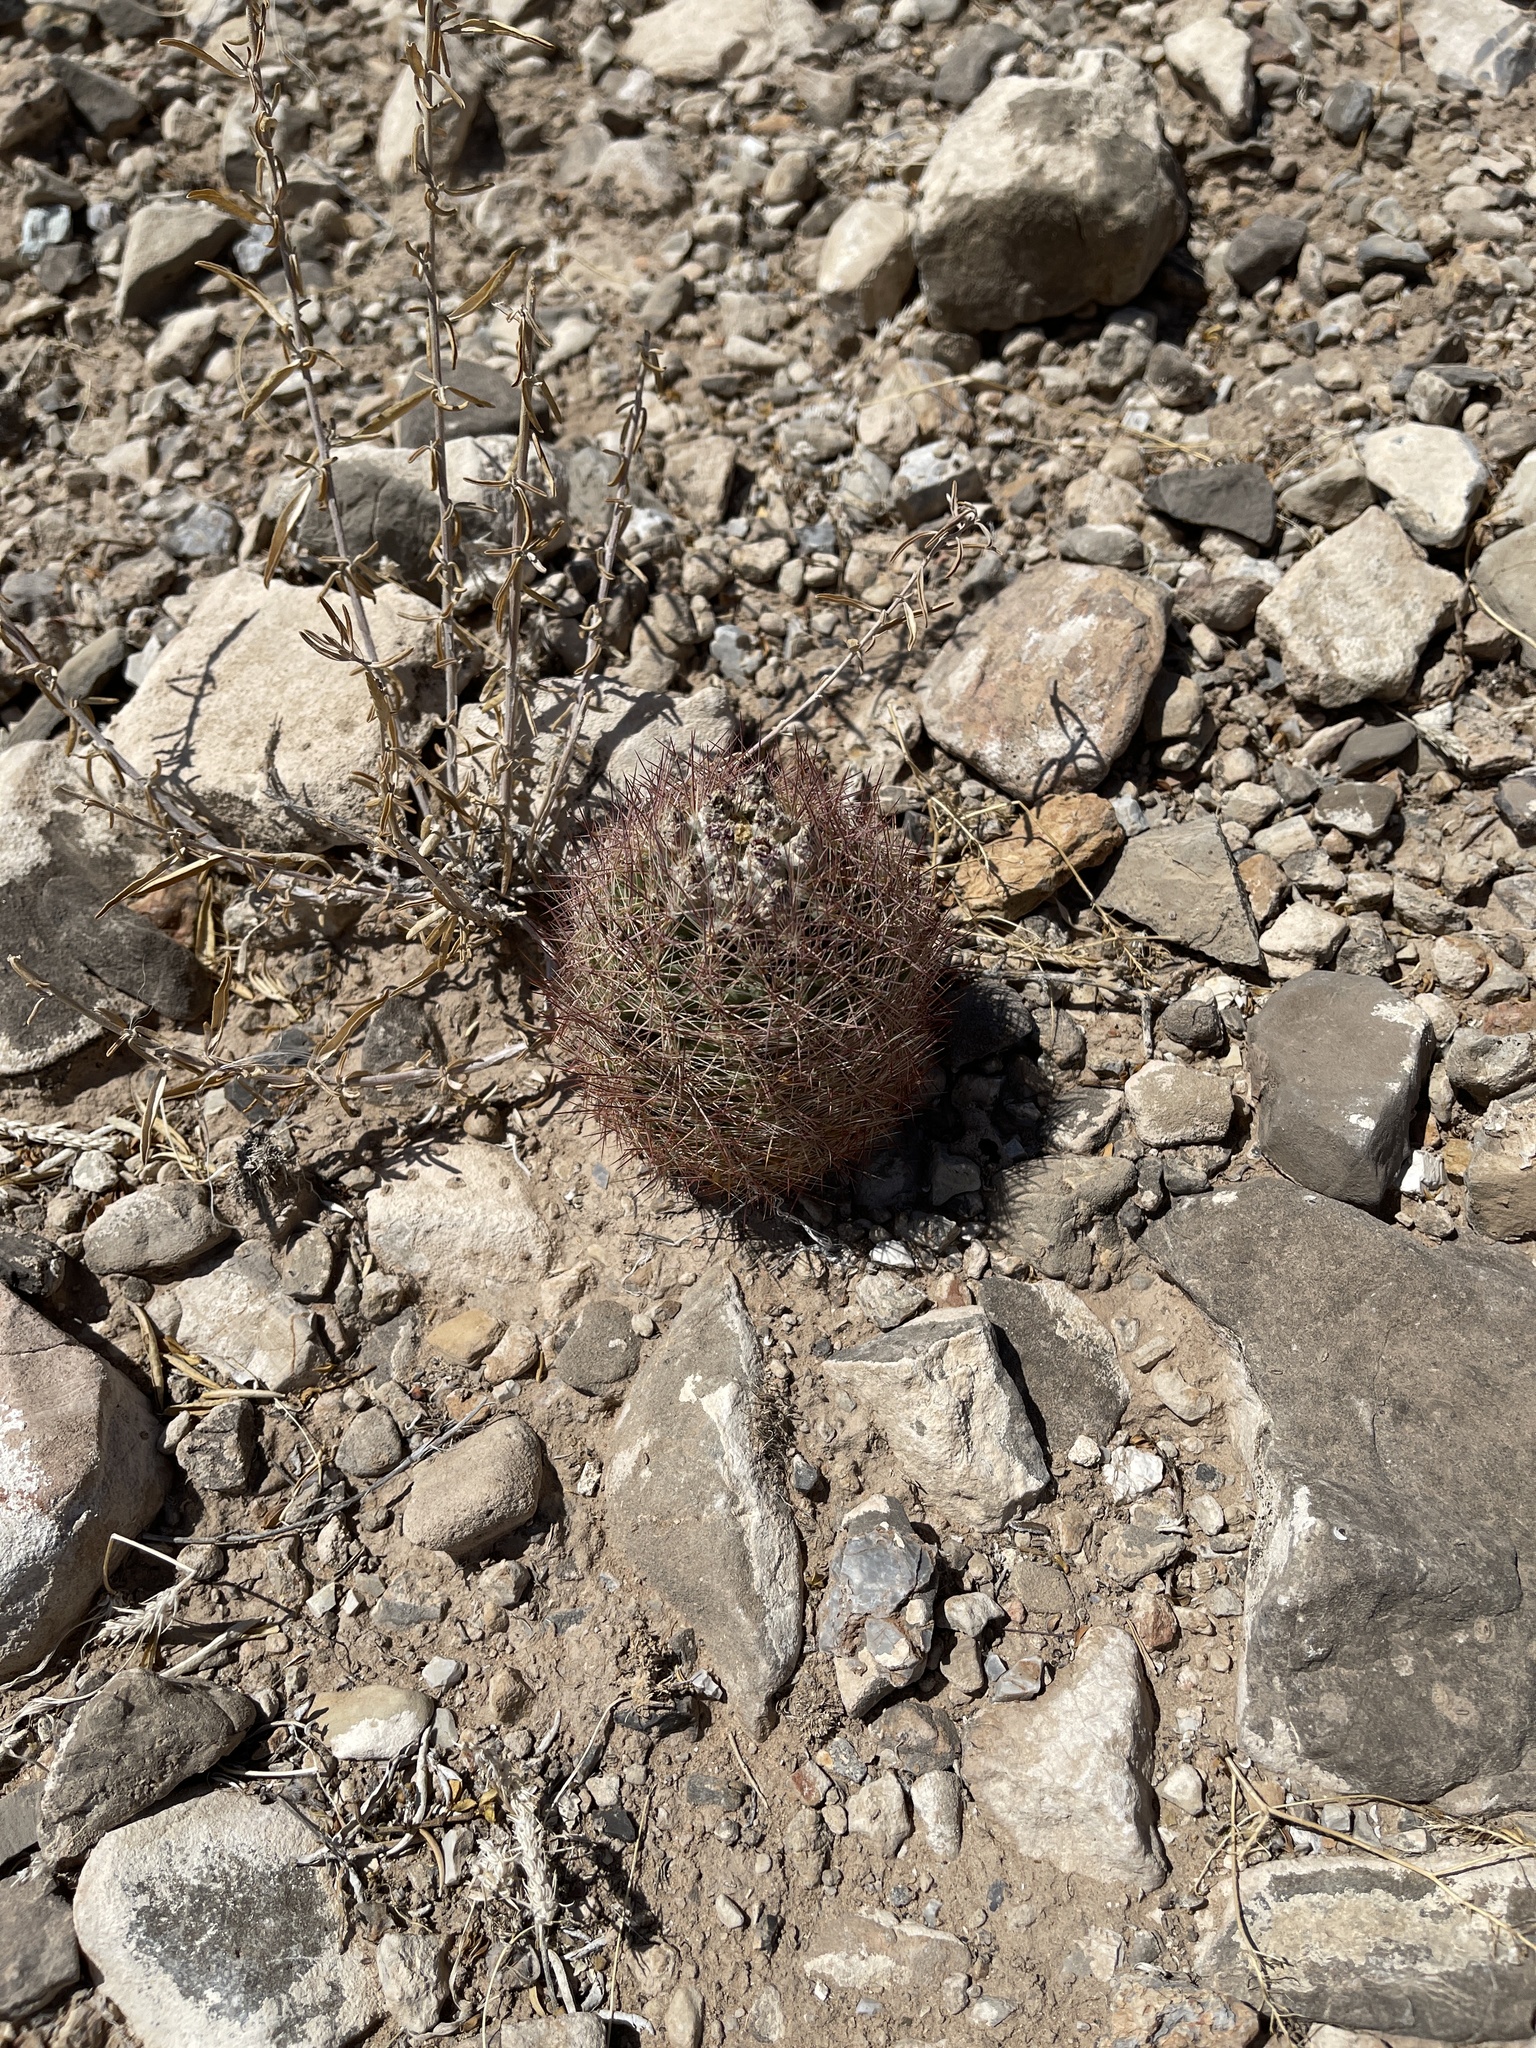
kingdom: Plantae
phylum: Tracheophyta
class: Magnoliopsida
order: Caryophyllales
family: Cactaceae
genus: Sclerocactus
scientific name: Sclerocactus intertextus
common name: White fish-hook cactus
